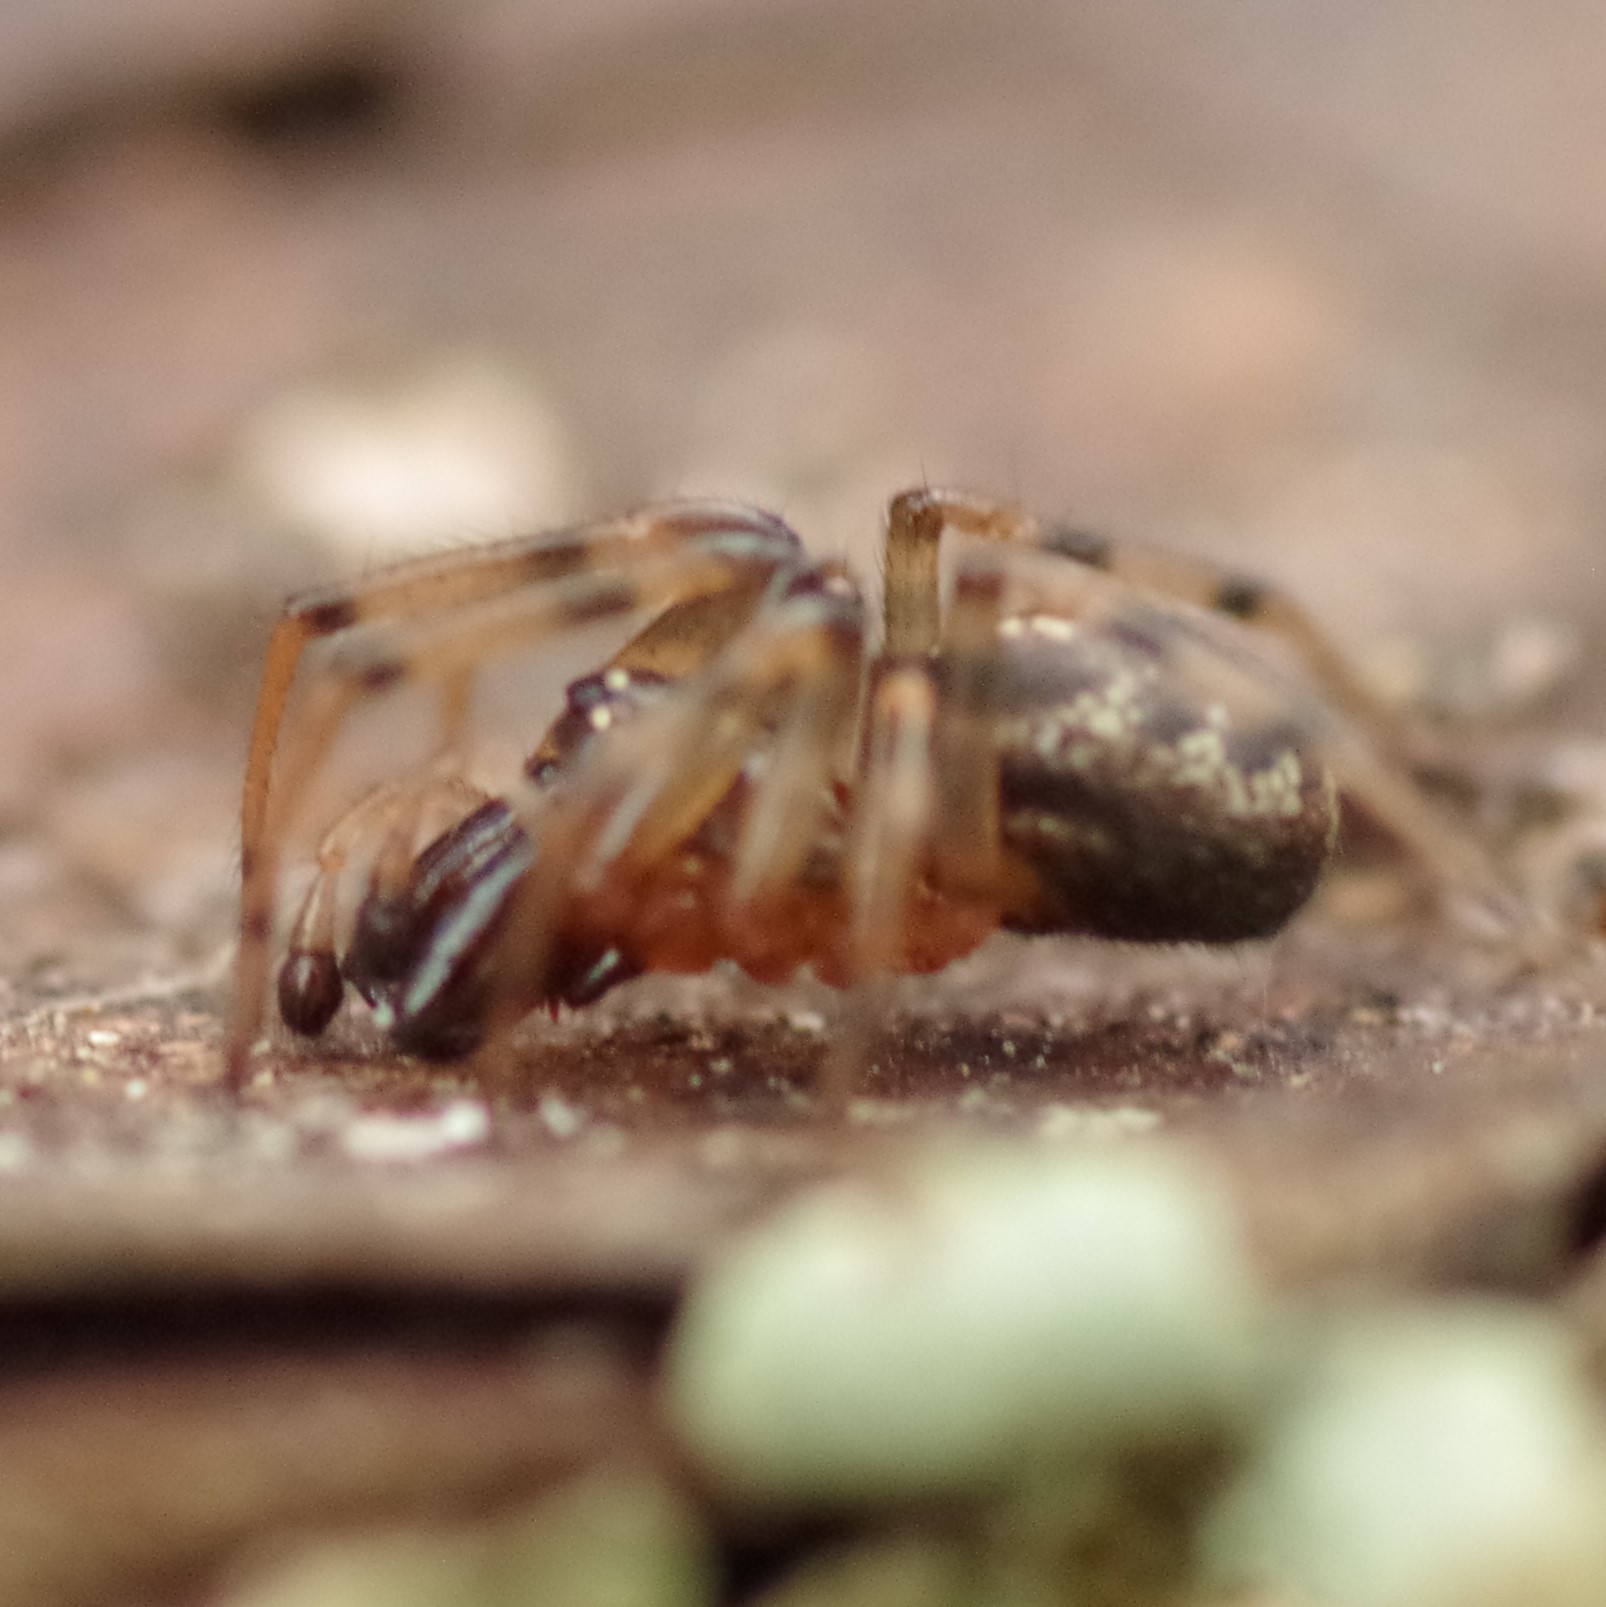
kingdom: Animalia
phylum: Arthropoda
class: Arachnida
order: Araneae
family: Theridiidae
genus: Enoplognatha
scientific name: Enoplognatha mandibularis
